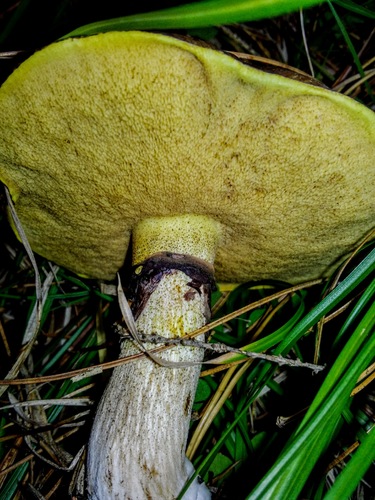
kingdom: Fungi
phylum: Basidiomycota
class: Agaricomycetes
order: Boletales
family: Suillaceae
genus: Suillus
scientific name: Suillus luteus
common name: Slippery jack
